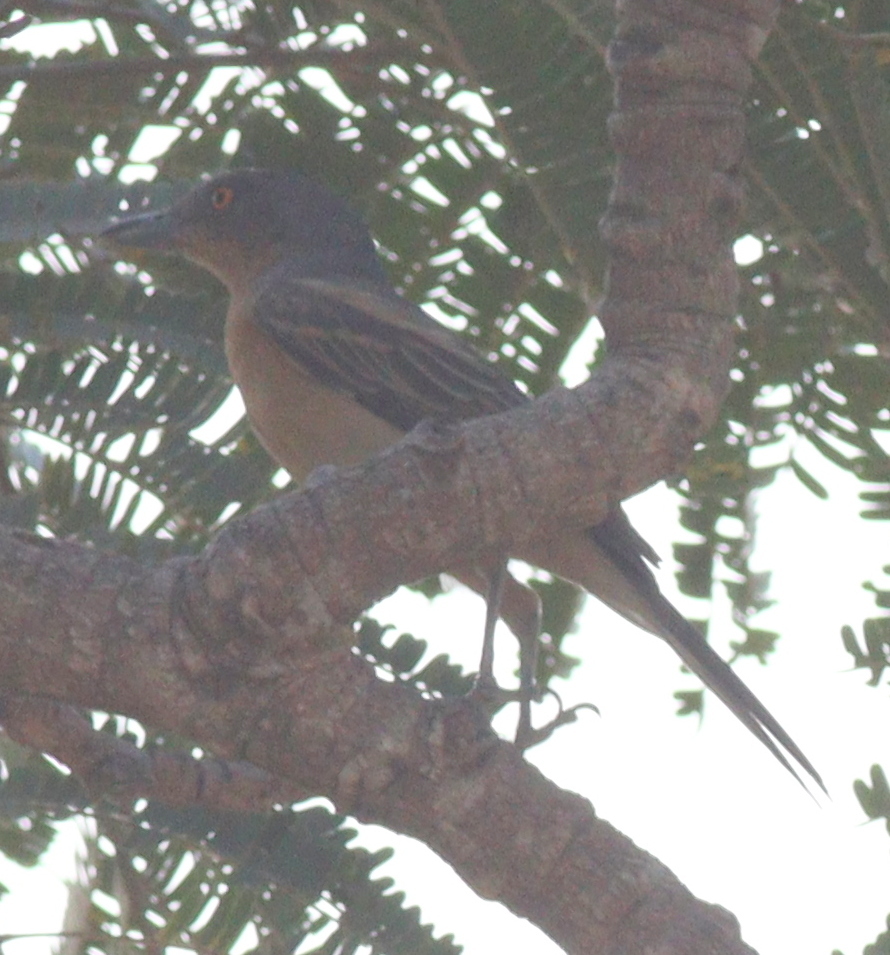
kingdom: Animalia
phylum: Chordata
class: Aves
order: Passeriformes
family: Malaconotidae
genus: Dryoscopus
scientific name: Dryoscopus gambensis
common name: Northern puffback
